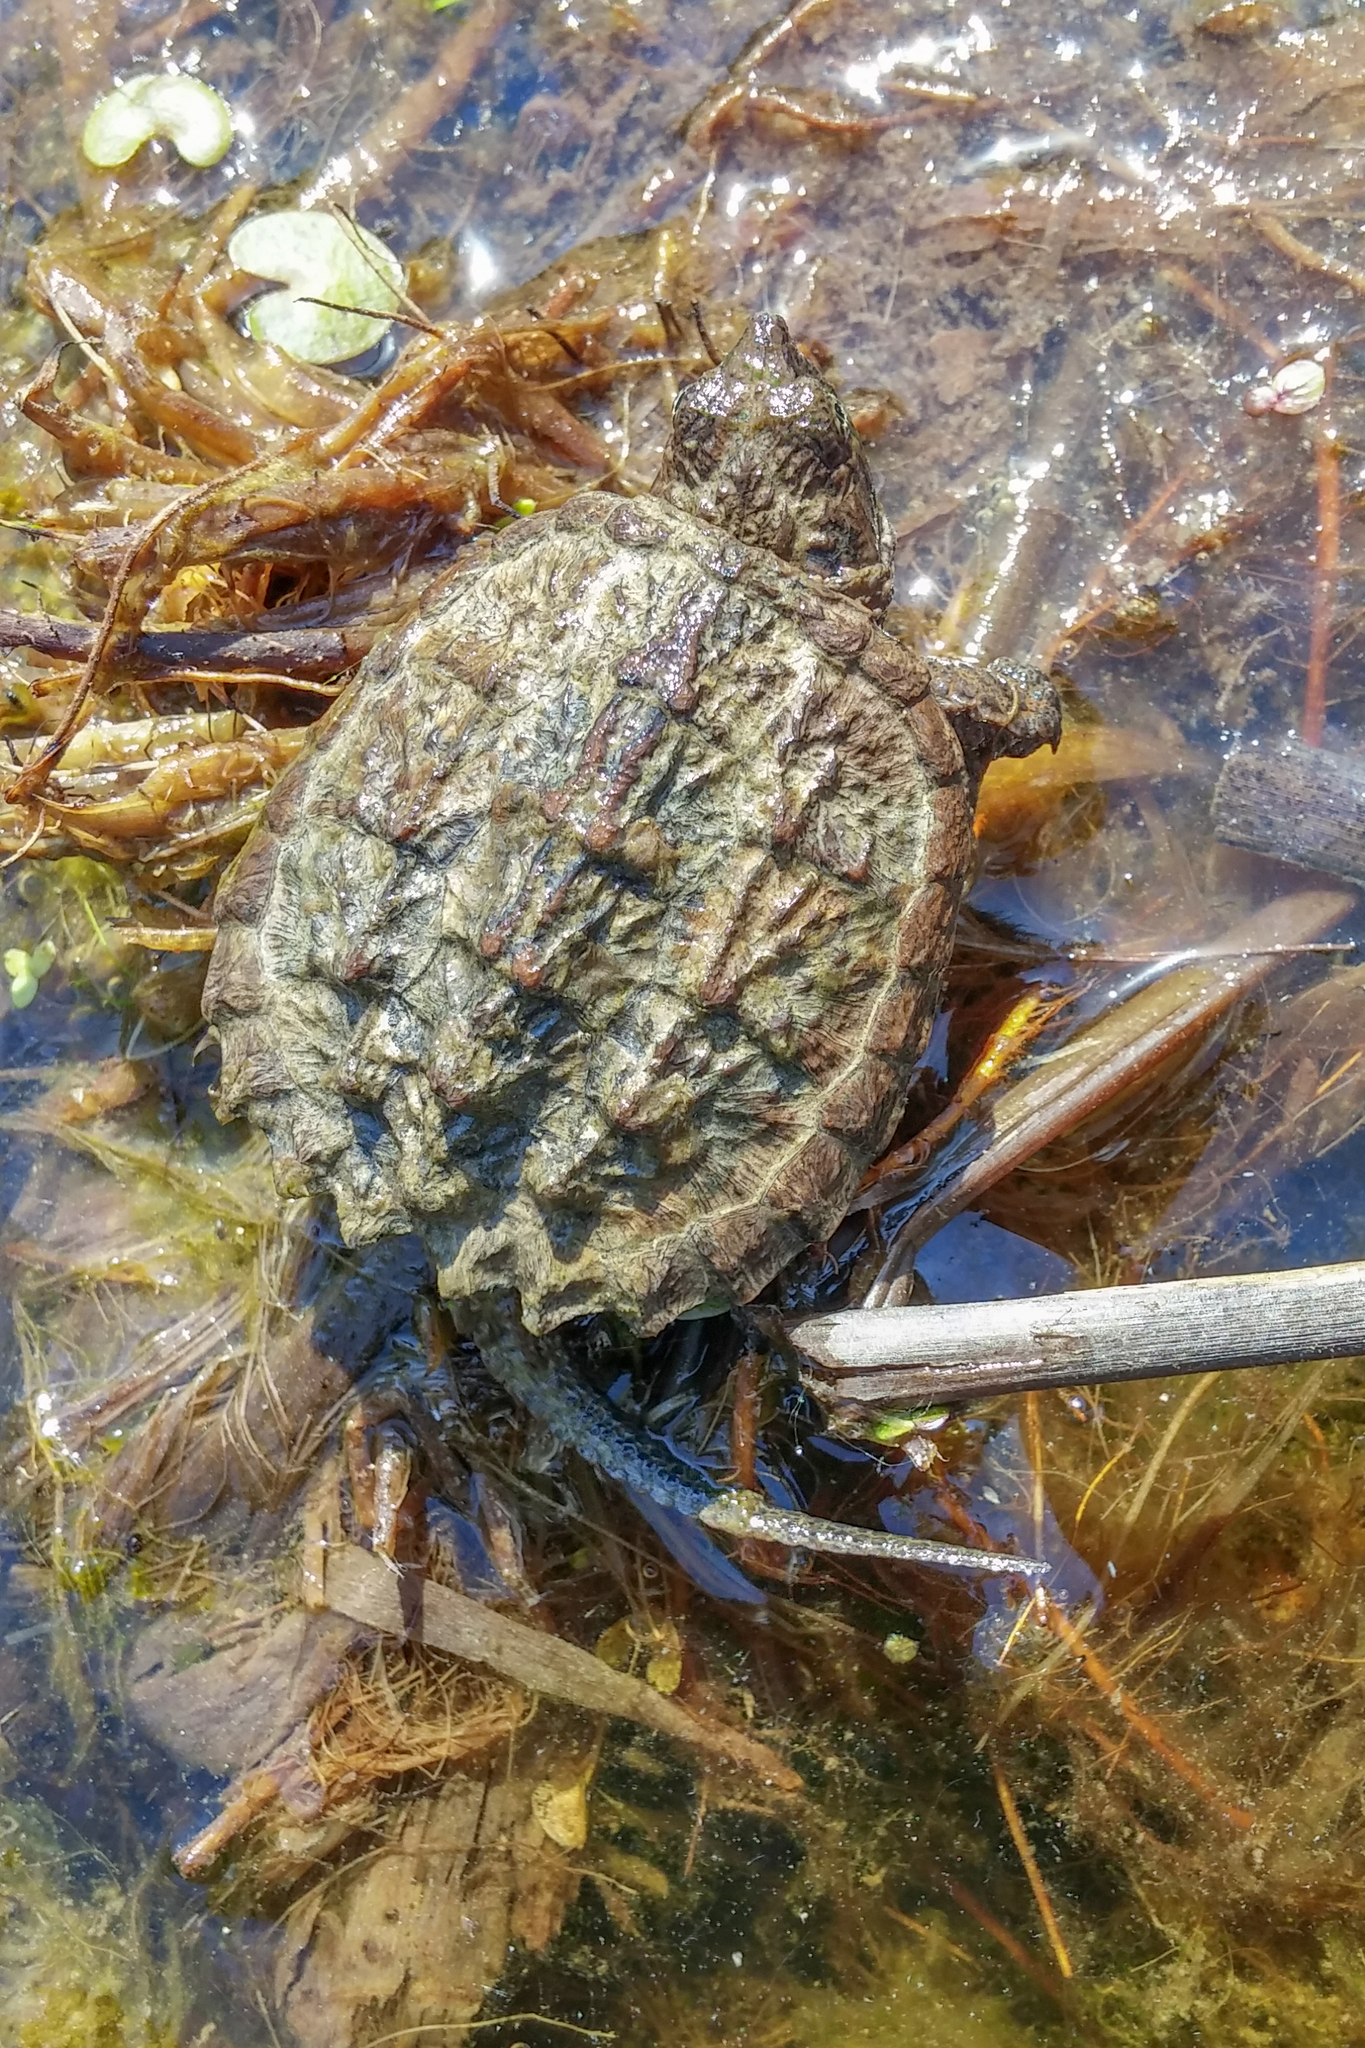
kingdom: Animalia
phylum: Chordata
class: Testudines
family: Chelydridae
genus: Chelydra
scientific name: Chelydra serpentina
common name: Common snapping turtle
